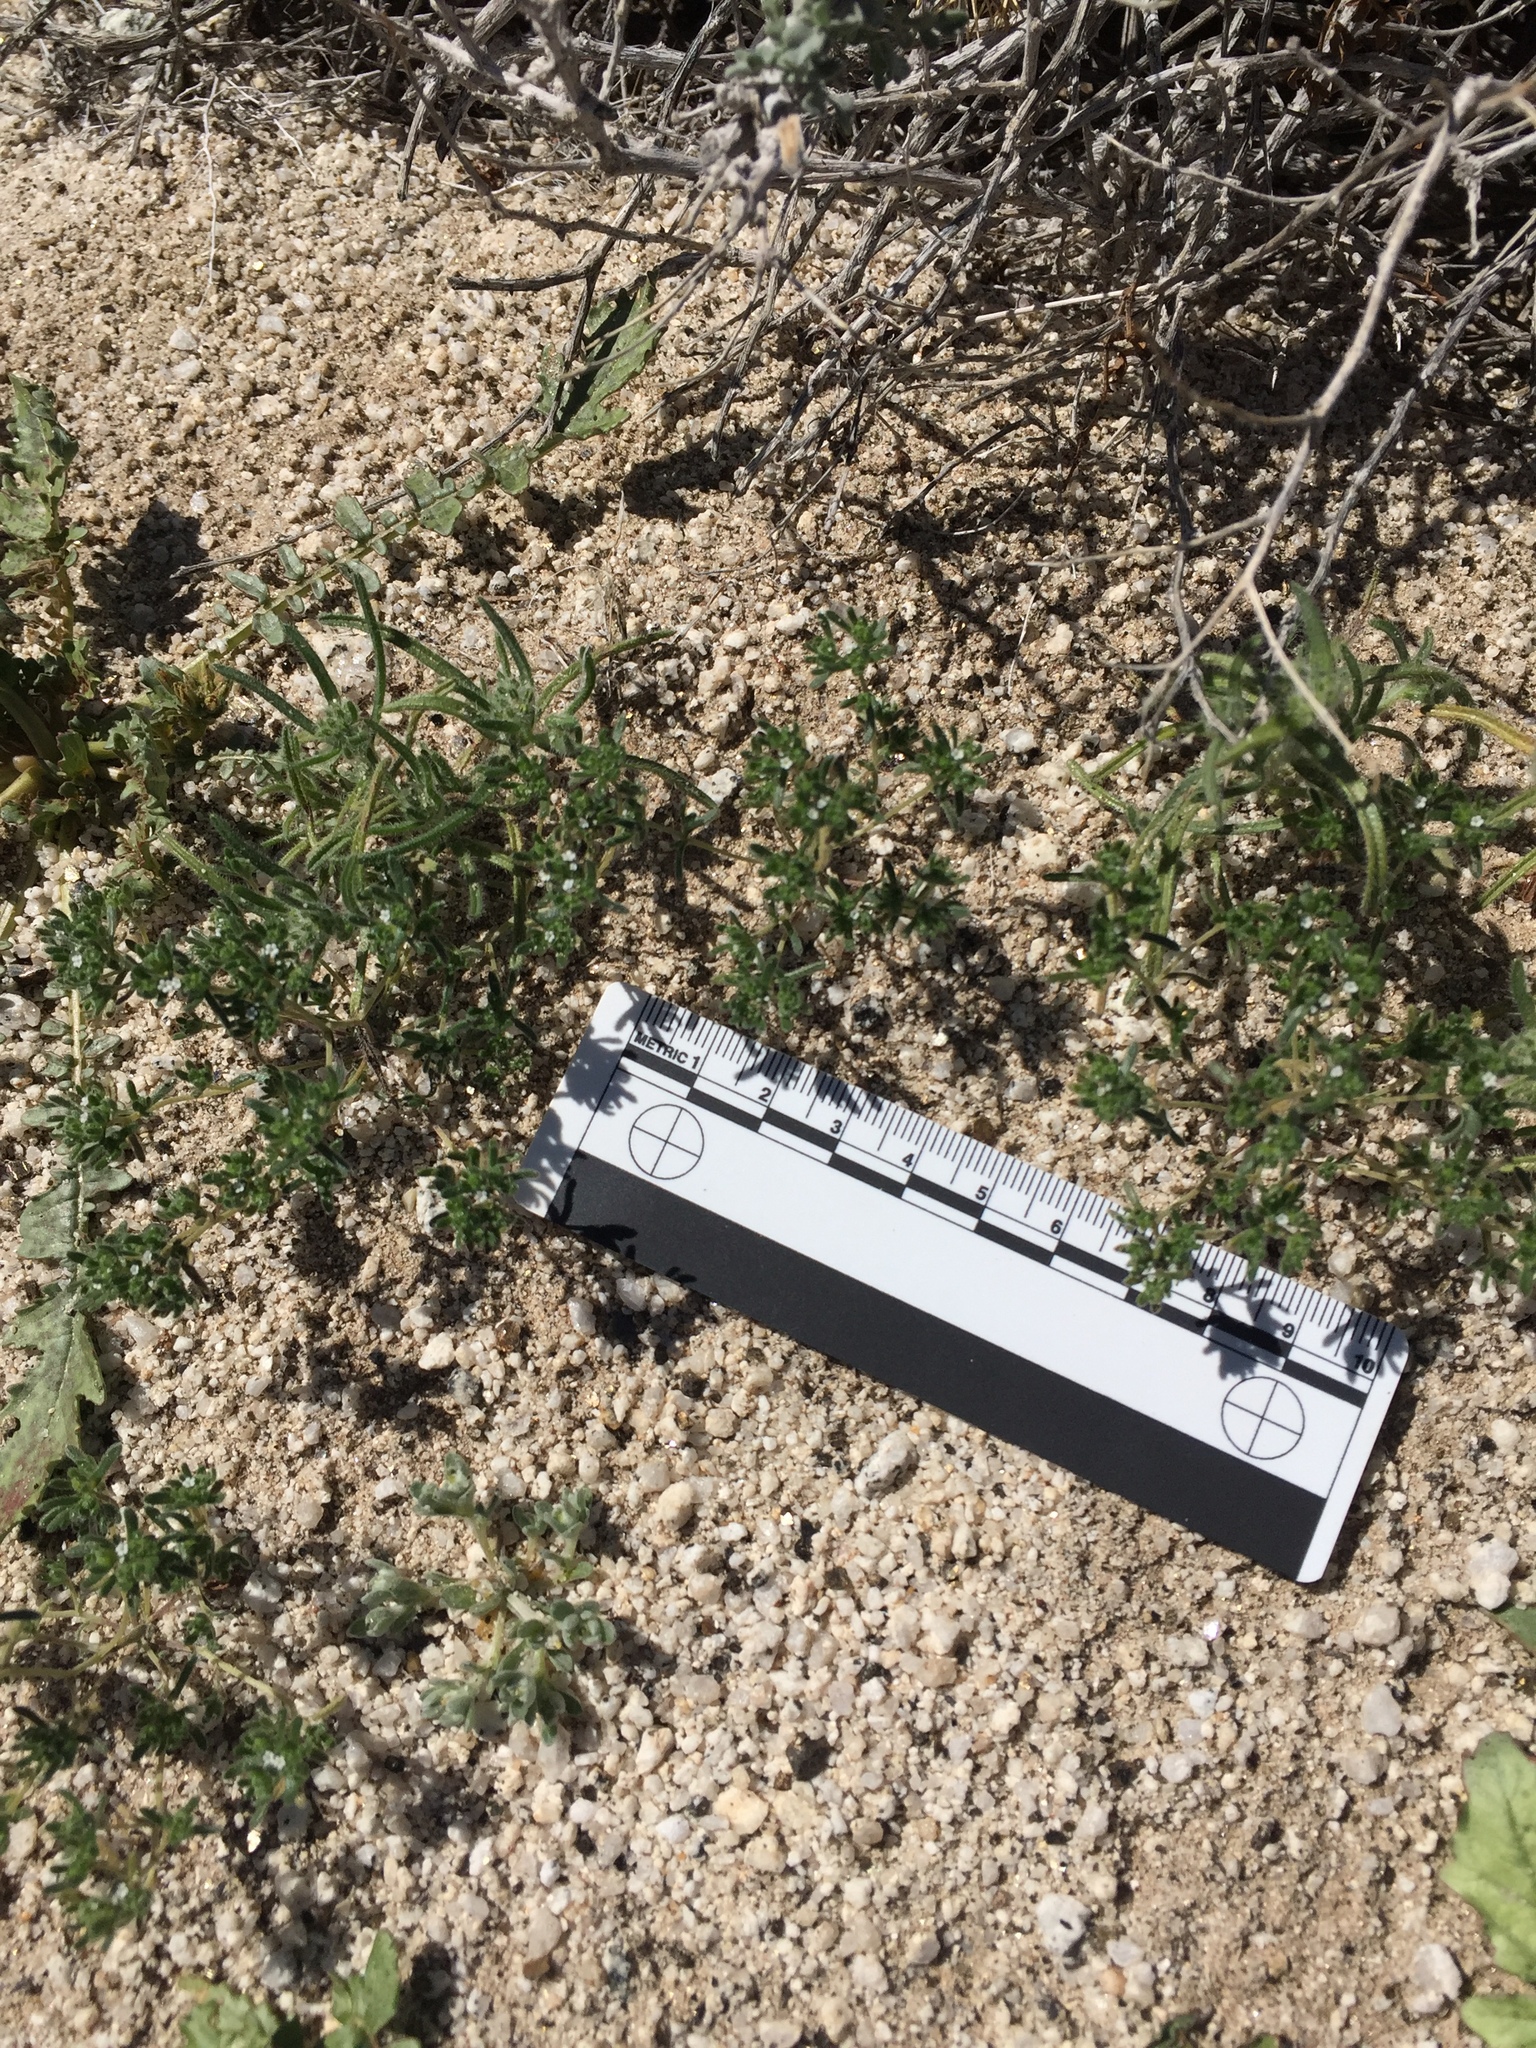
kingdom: Plantae
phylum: Tracheophyta
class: Magnoliopsida
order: Boraginales
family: Boraginaceae
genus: Eremocarya
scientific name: Eremocarya micrantha
